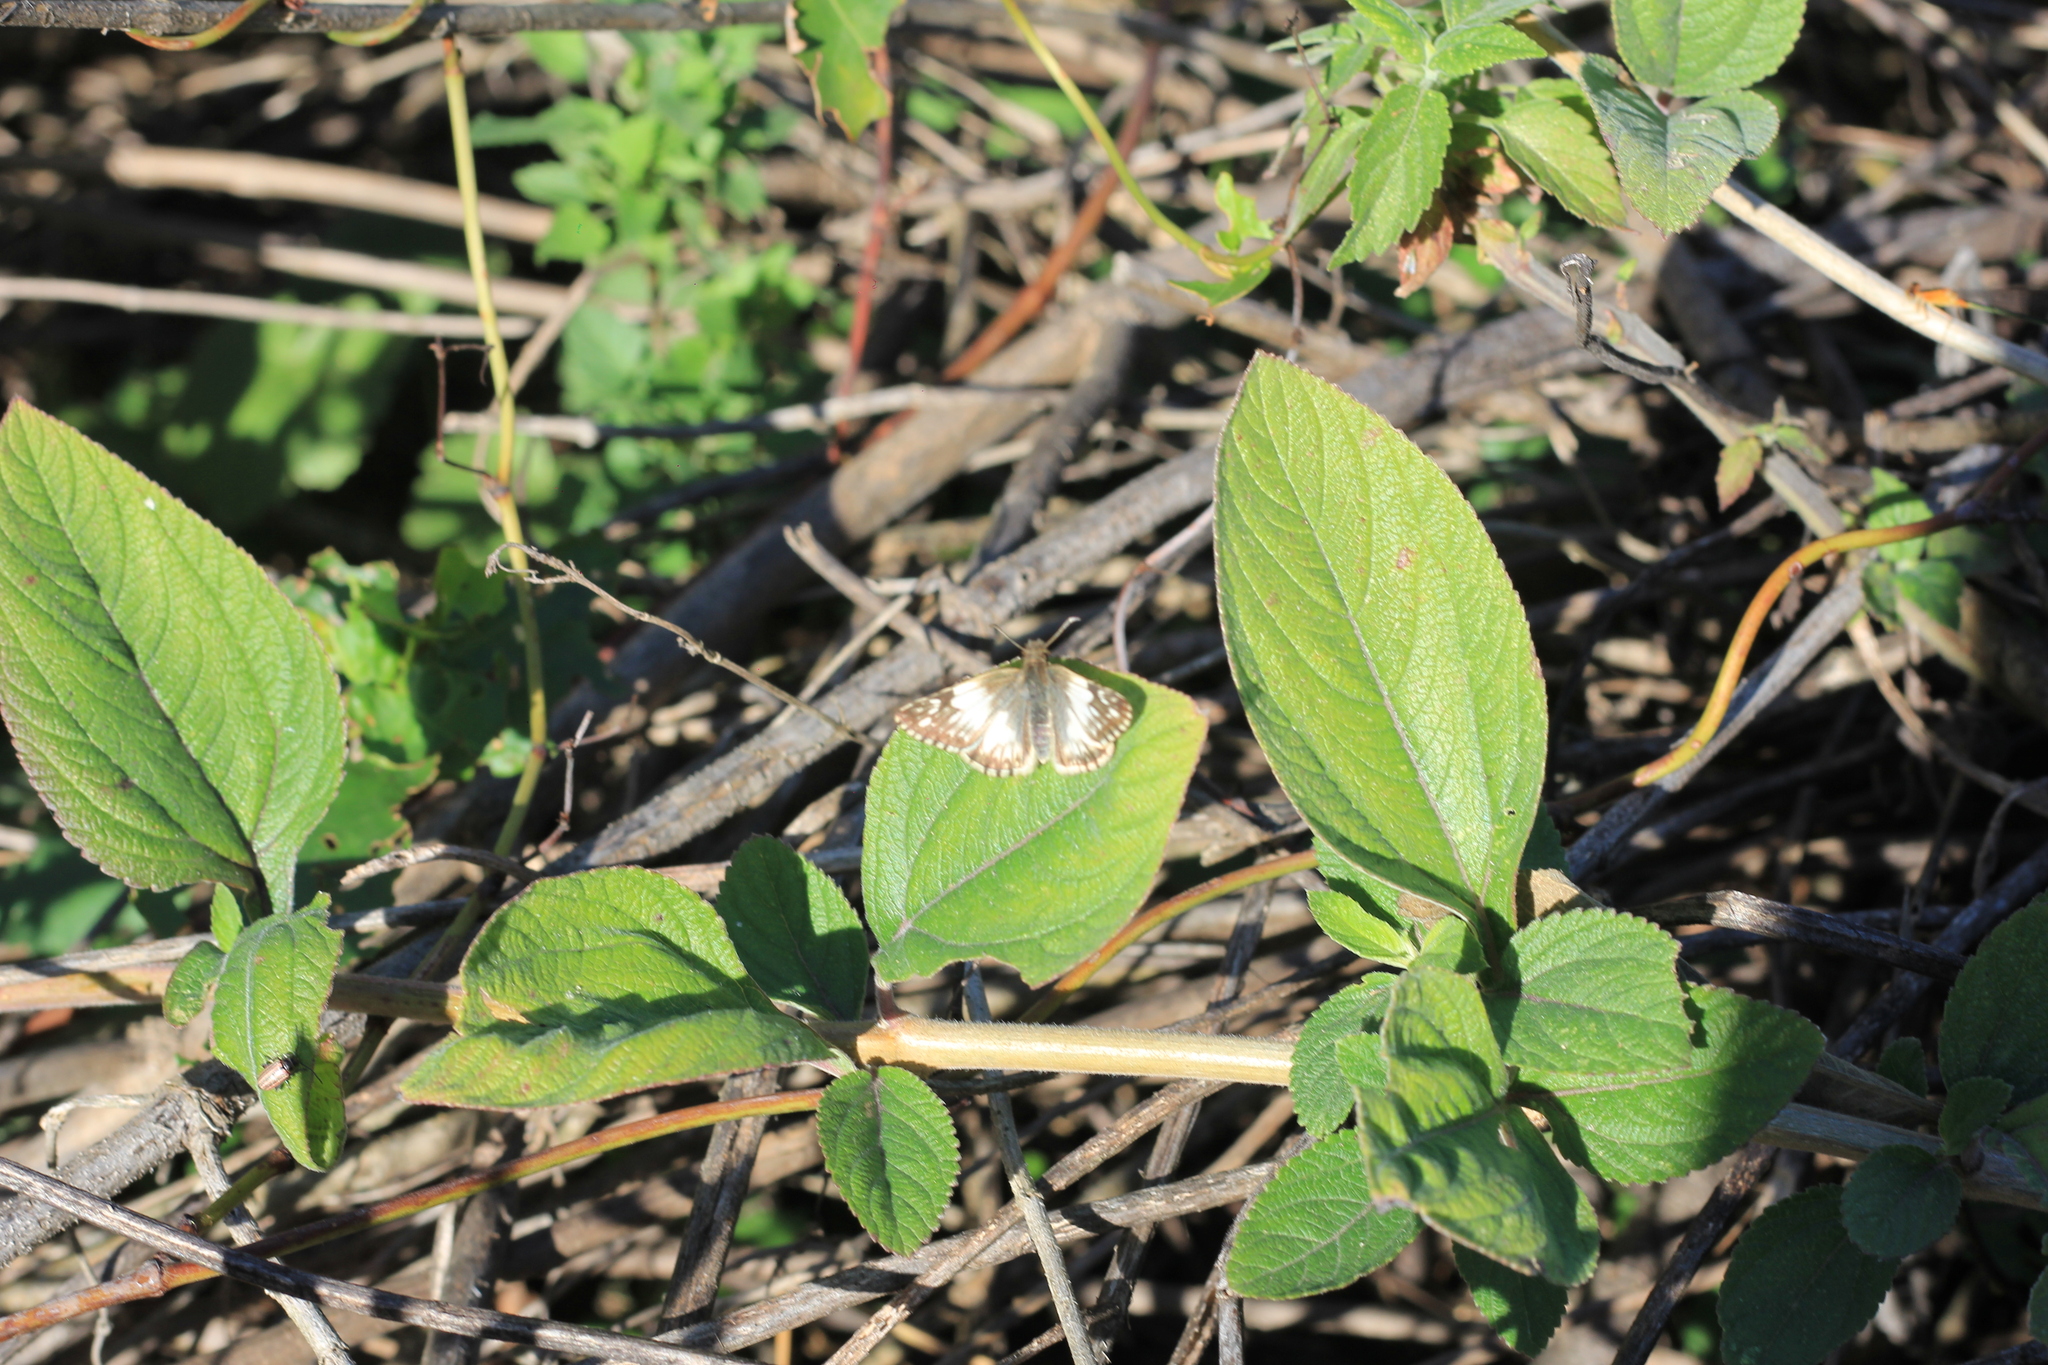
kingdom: Animalia
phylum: Arthropoda
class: Insecta
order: Lepidoptera
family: Hesperiidae
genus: Heliopetes
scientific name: Heliopetes omrina
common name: Stained white-skipper
